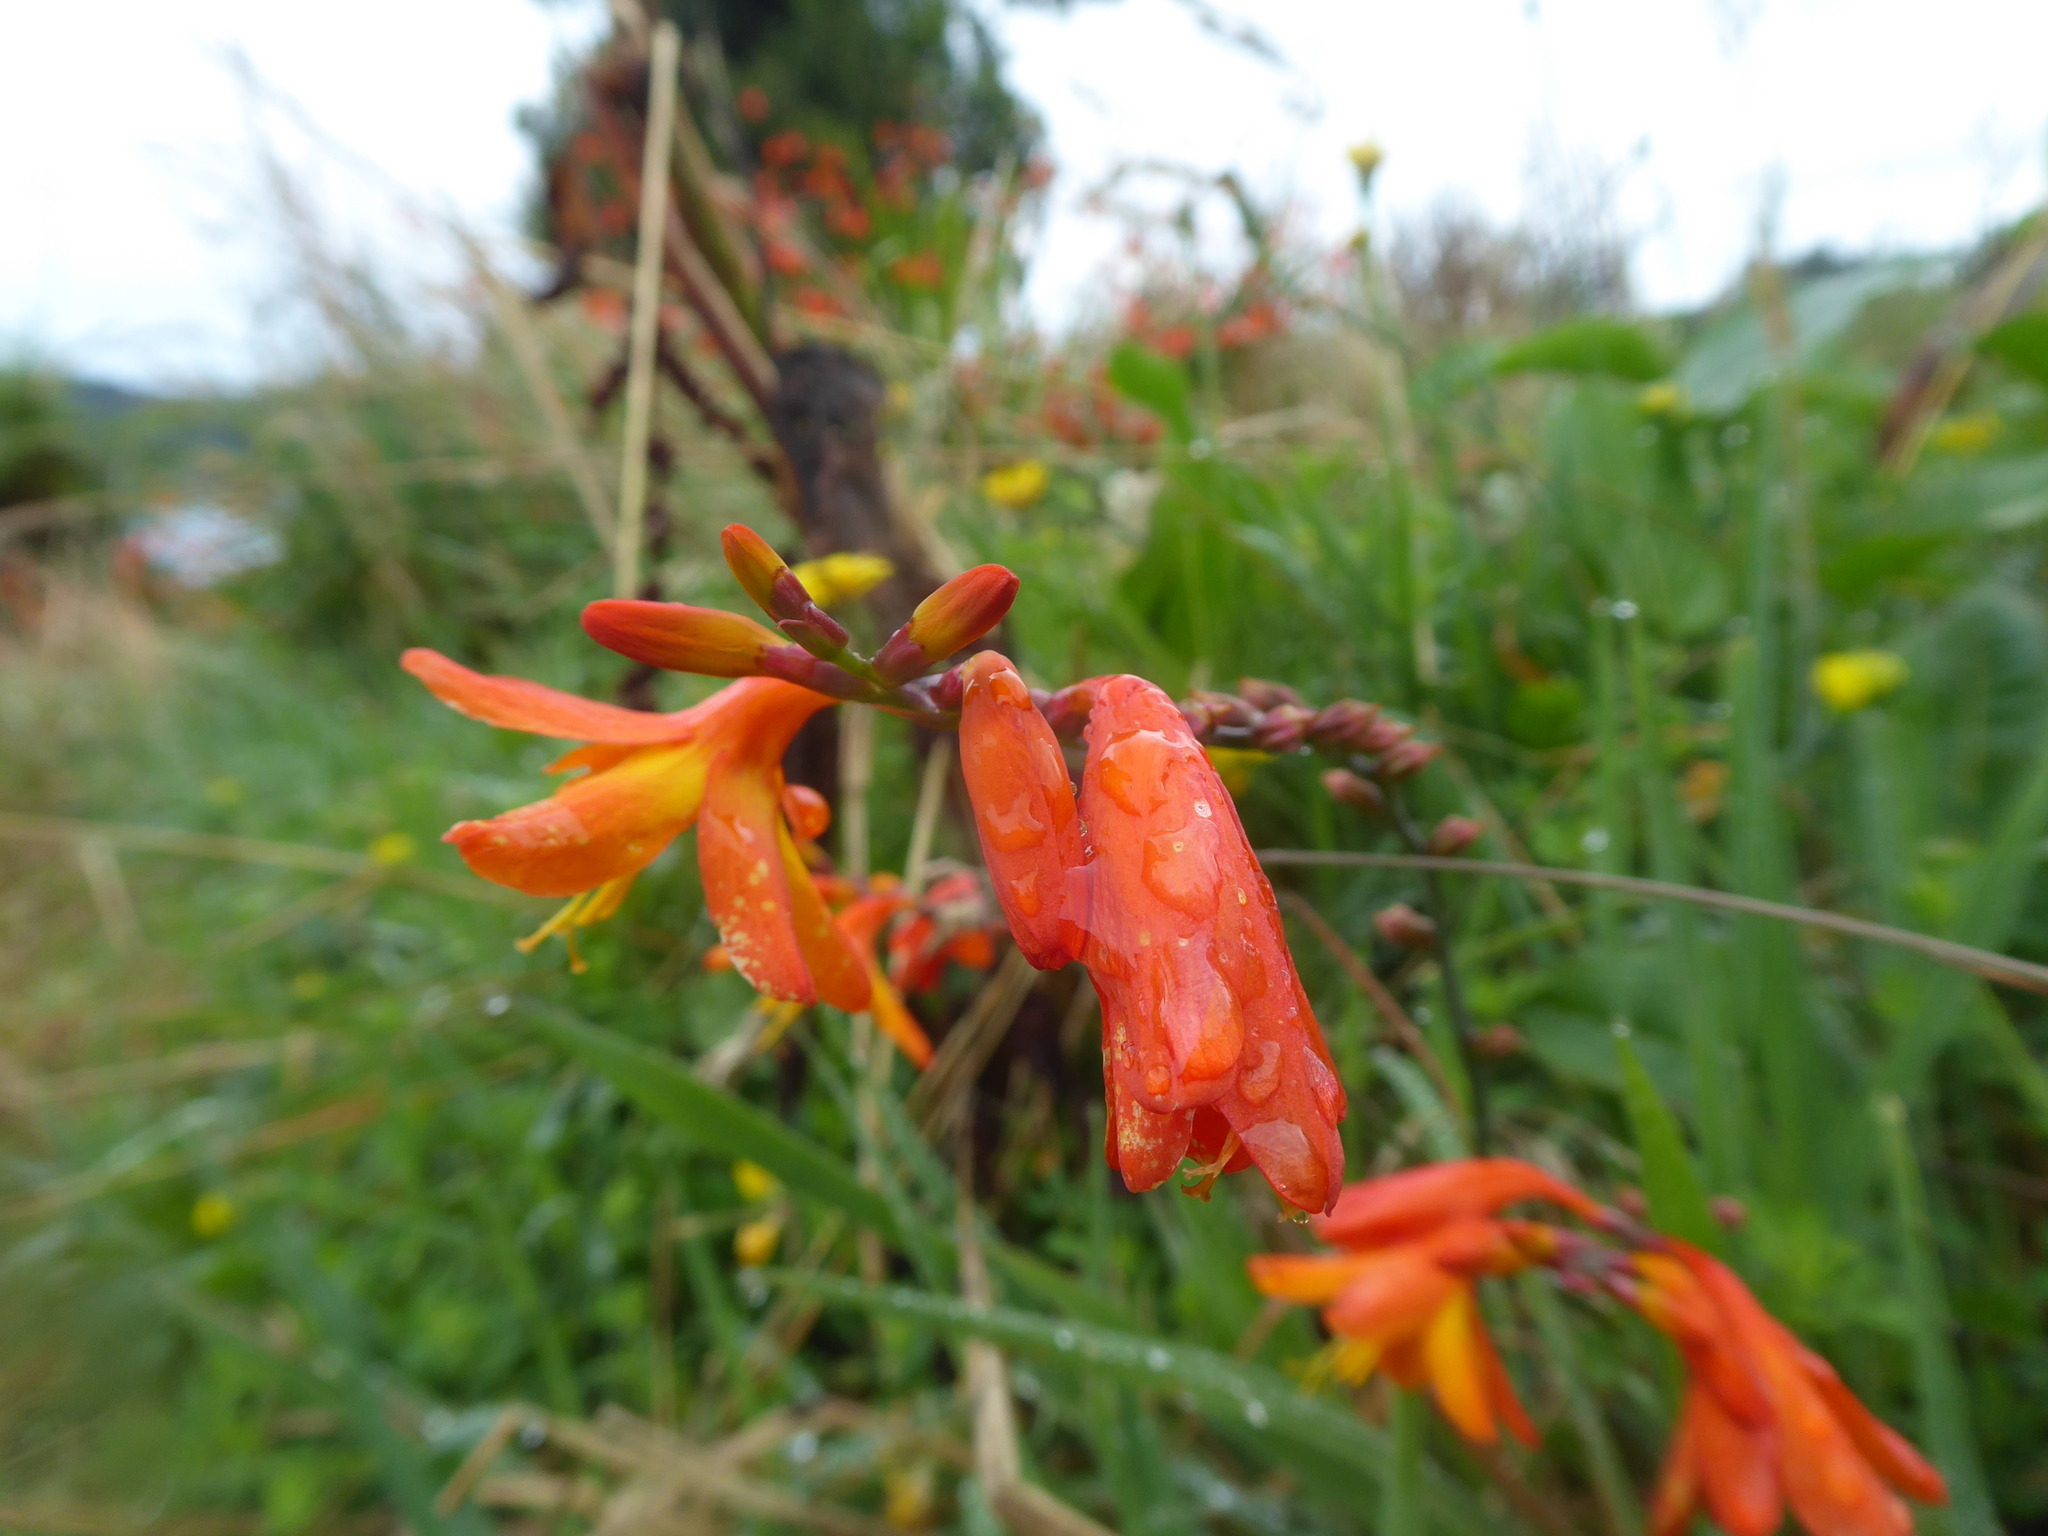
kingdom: Plantae
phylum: Tracheophyta
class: Liliopsida
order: Asparagales
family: Iridaceae
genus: Crocosmia
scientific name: Crocosmia crocosmiiflora
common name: Montbretia
